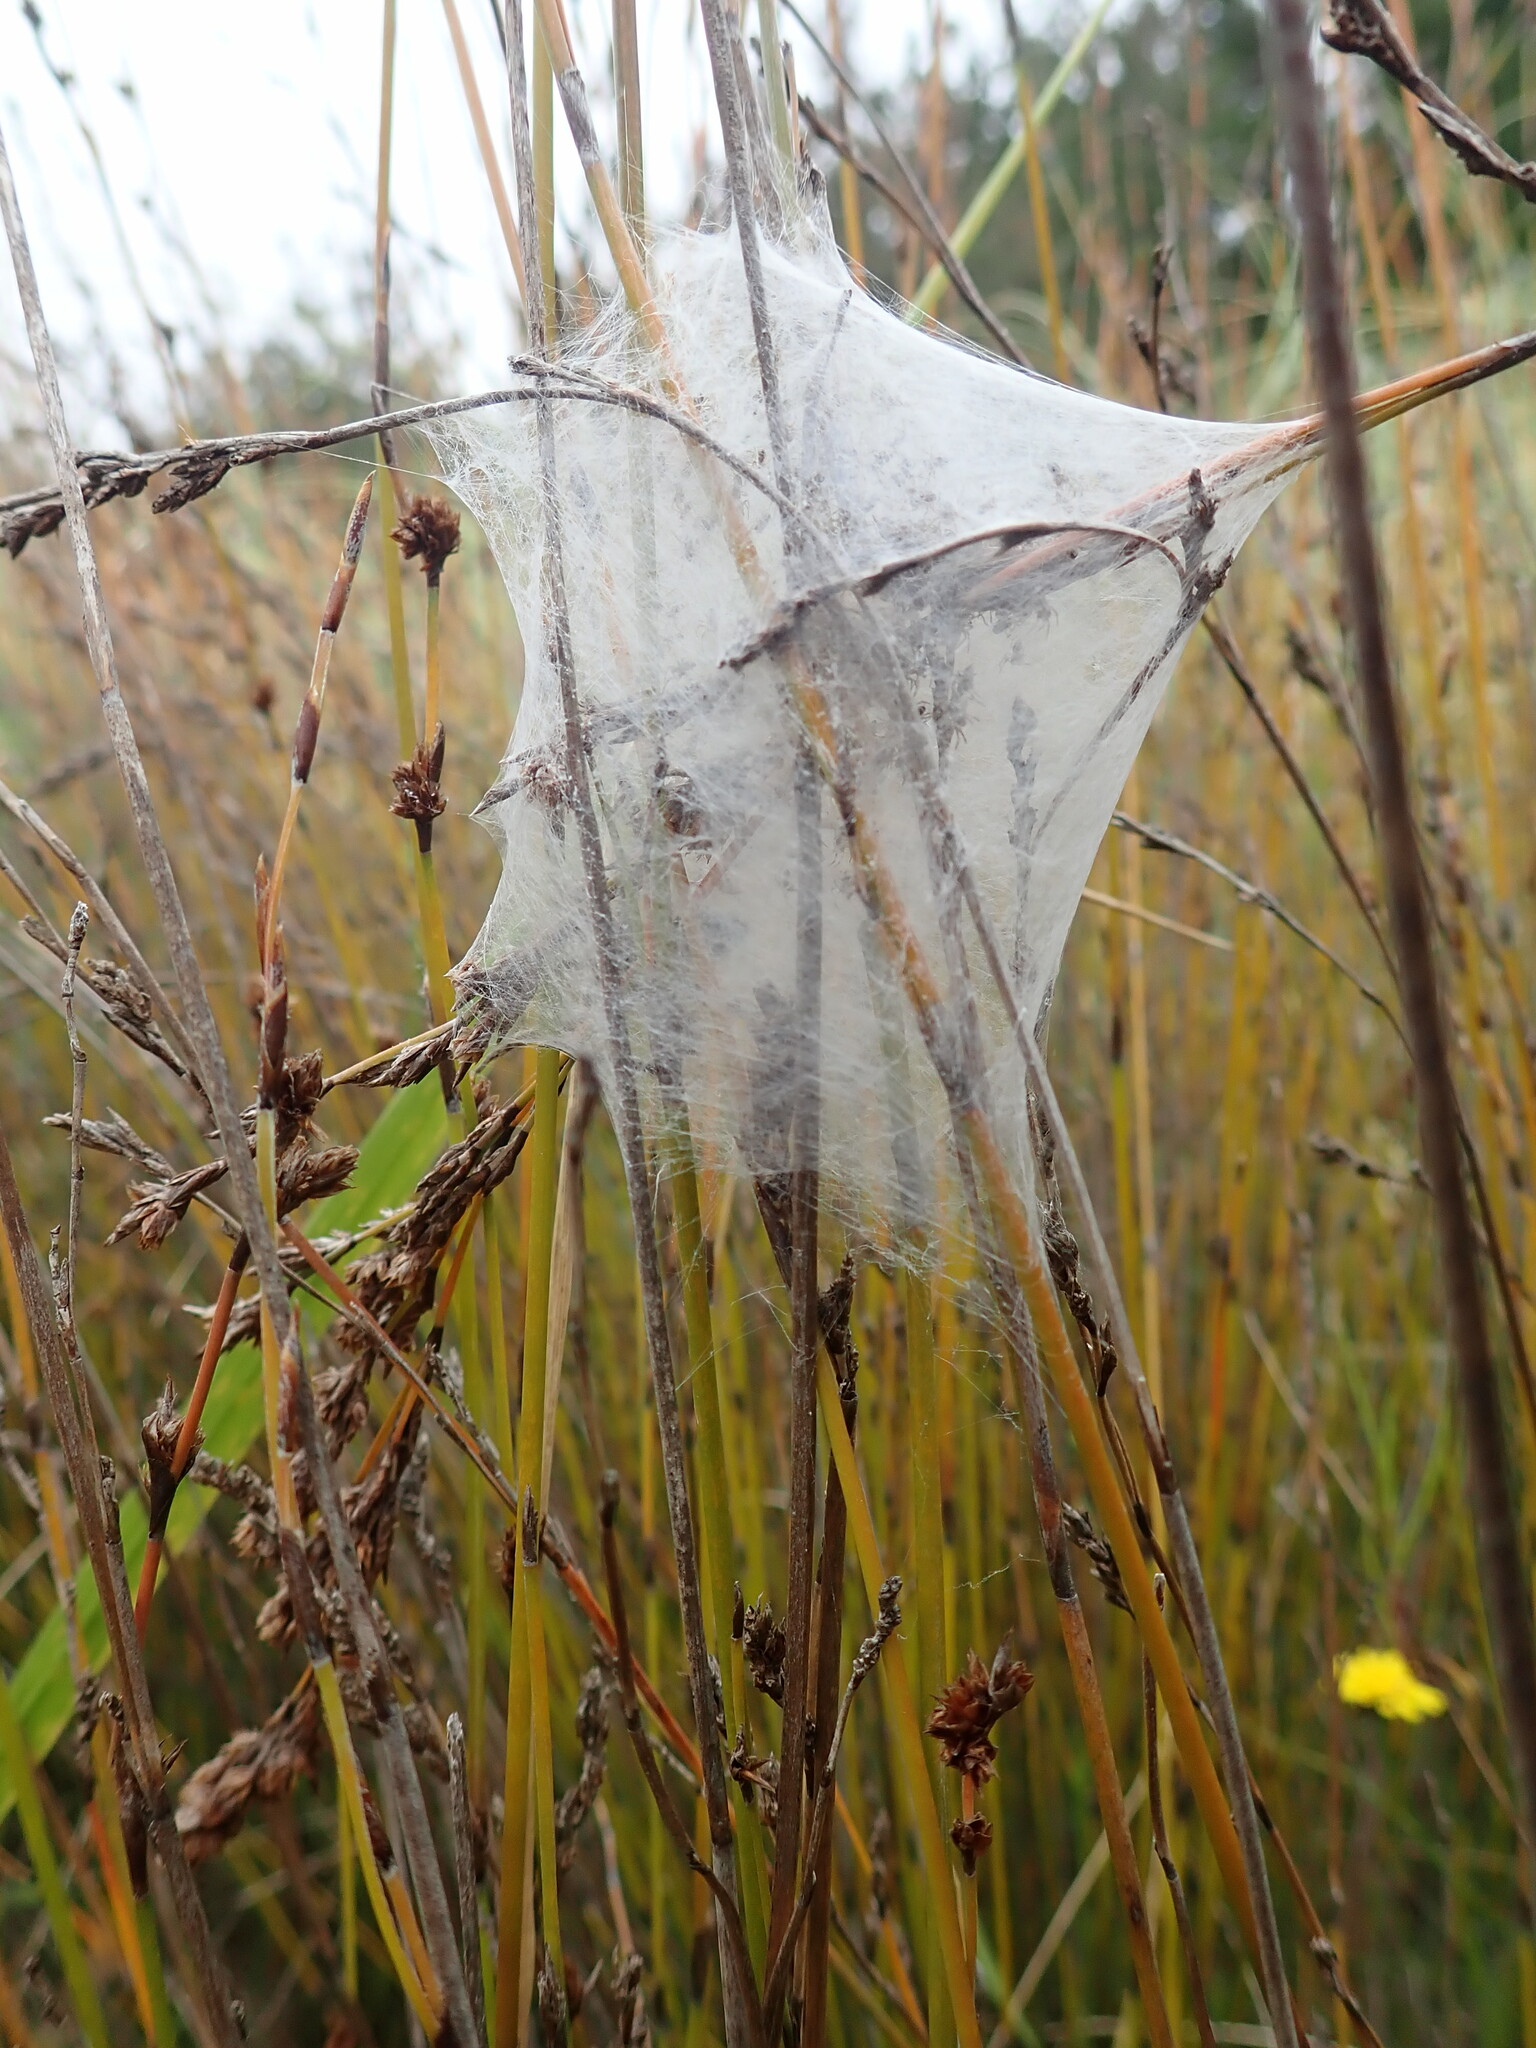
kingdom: Animalia
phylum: Arthropoda
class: Arachnida
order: Araneae
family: Pisauridae
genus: Dolomedes
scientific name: Dolomedes minor
